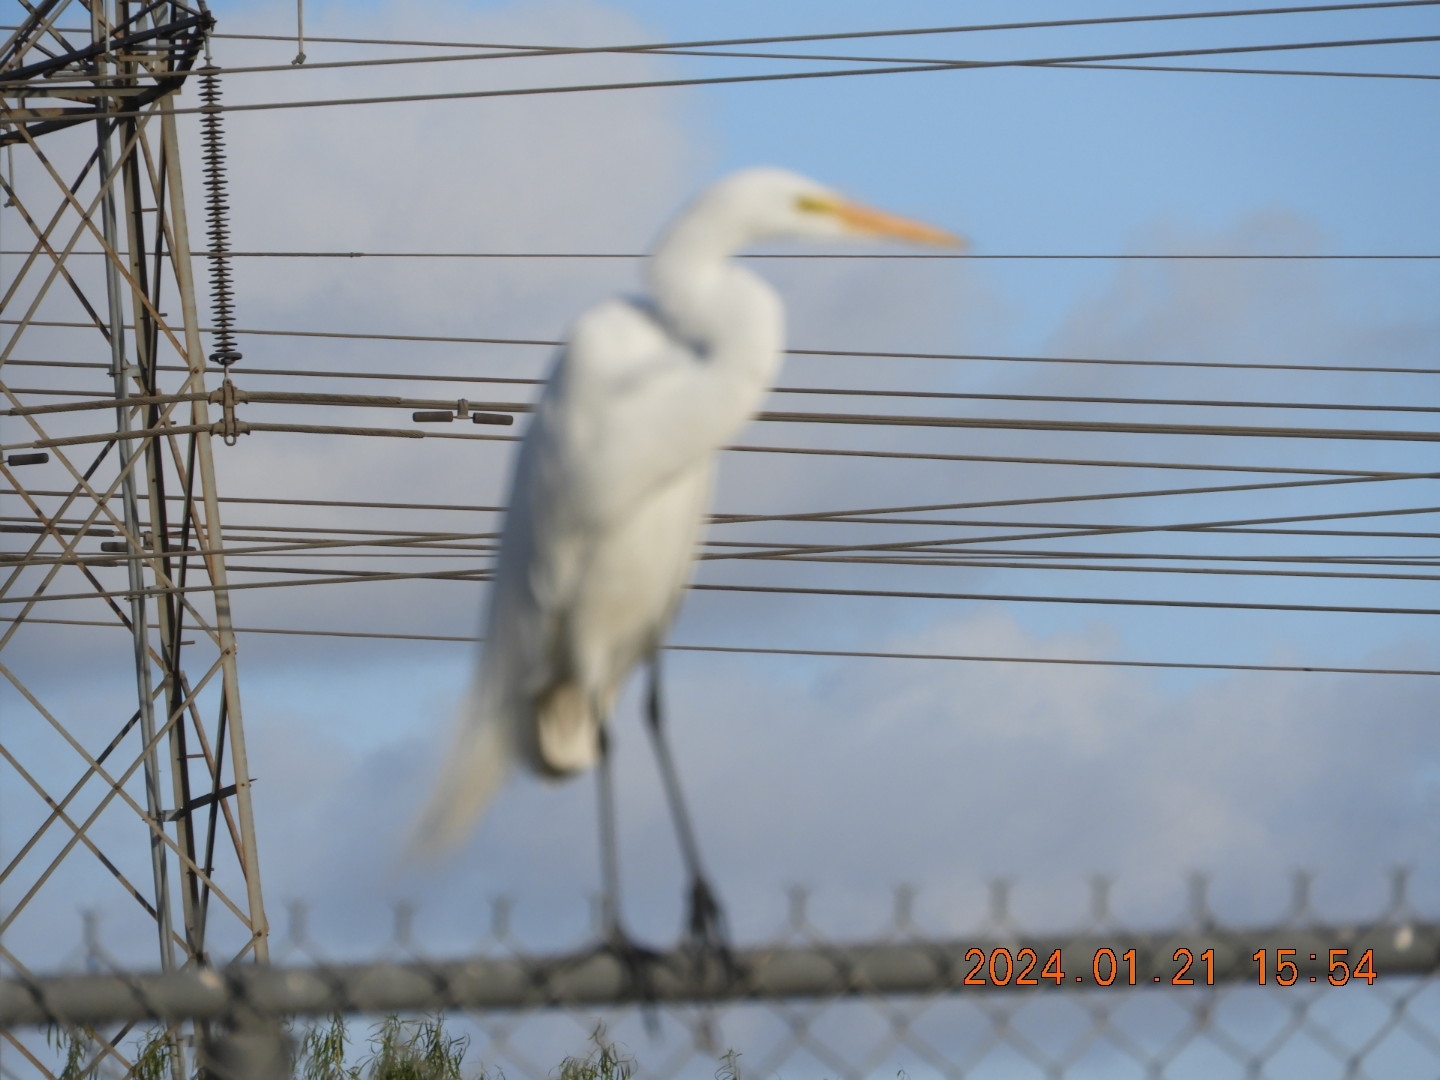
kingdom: Animalia
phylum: Chordata
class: Aves
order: Pelecaniformes
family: Ardeidae
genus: Ardea
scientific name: Ardea alba
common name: Great egret
